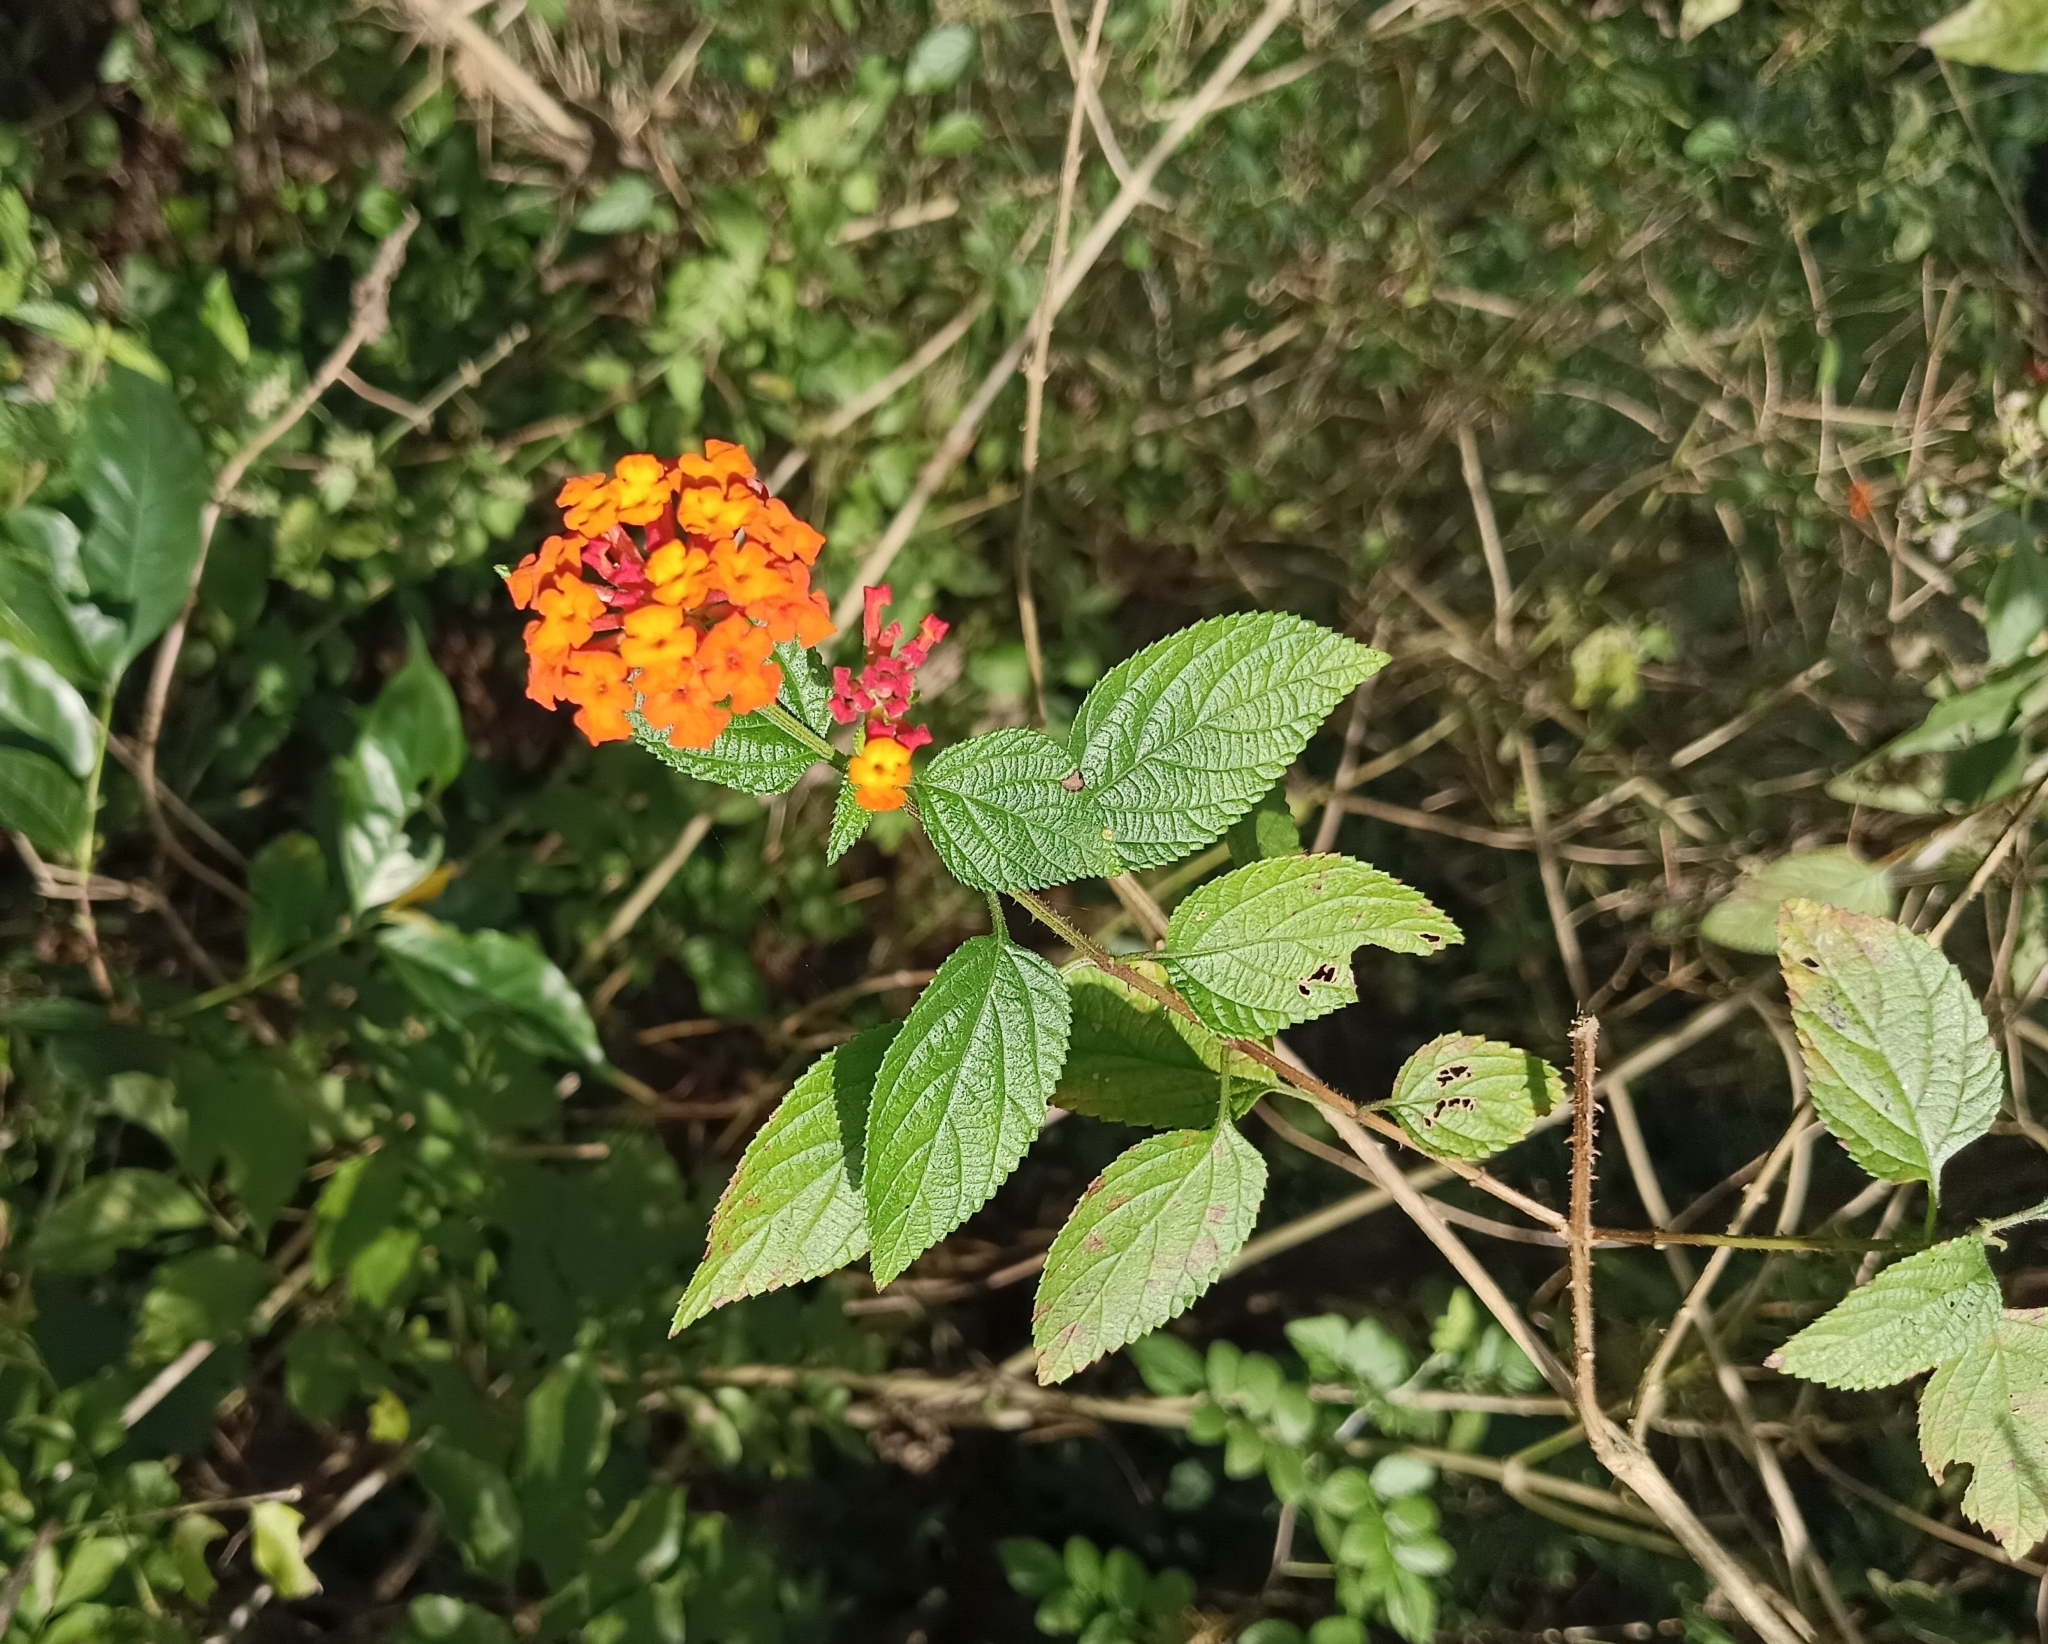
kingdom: Plantae
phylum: Tracheophyta
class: Magnoliopsida
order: Lamiales
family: Verbenaceae
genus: Lantana
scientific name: Lantana camara
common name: Lantana
